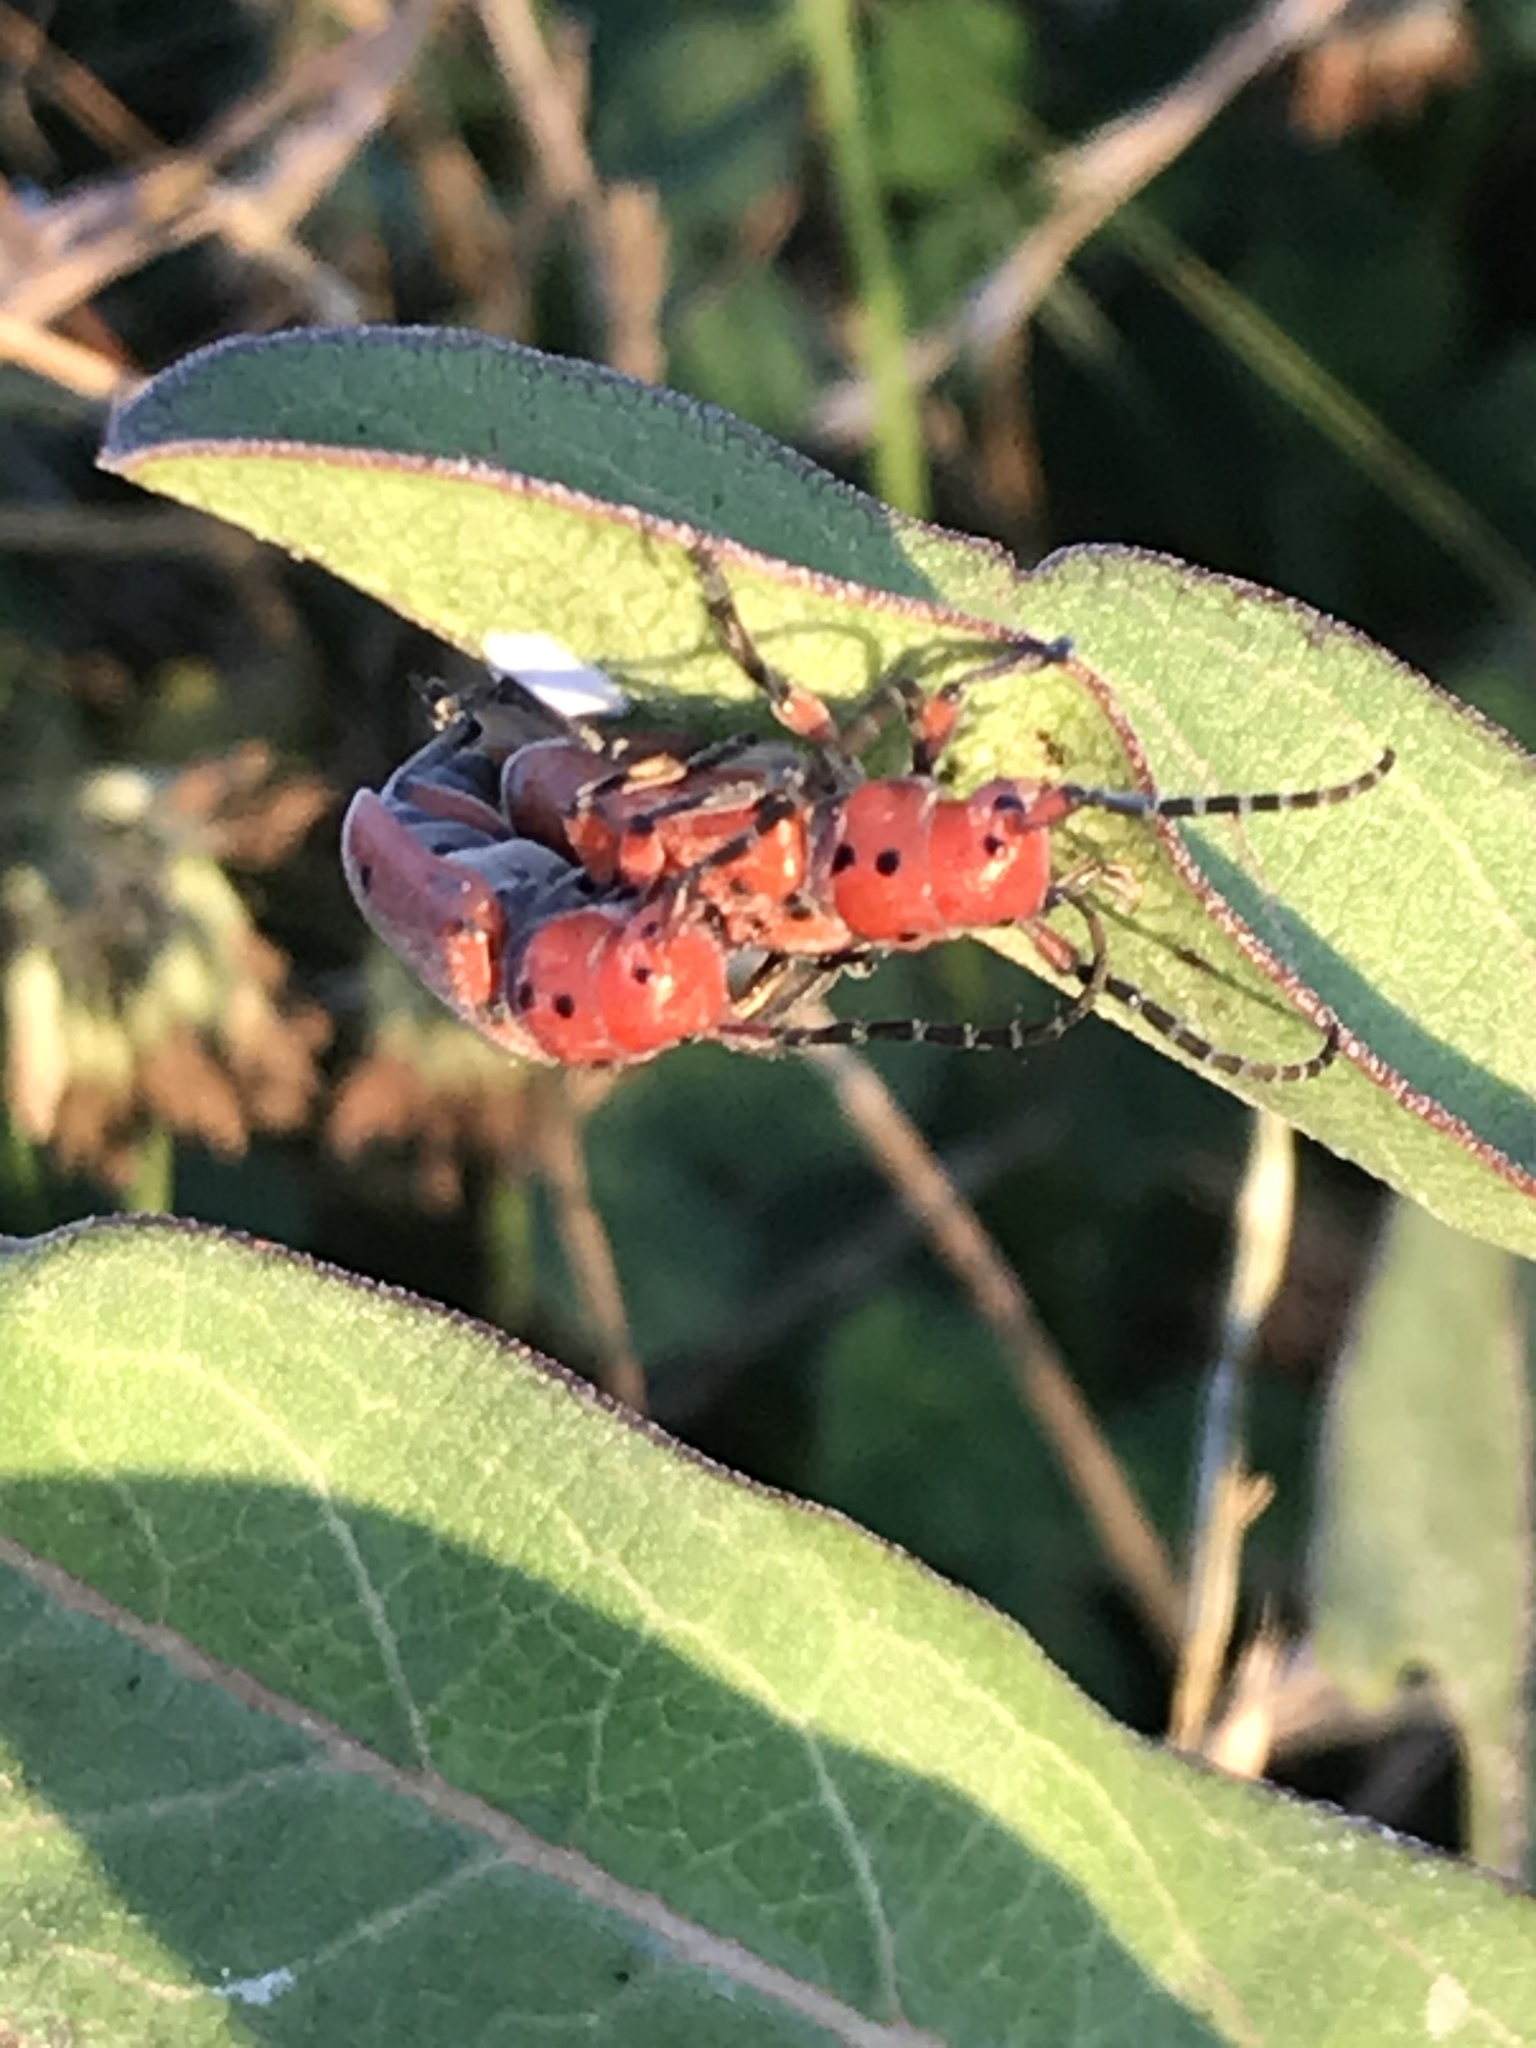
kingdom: Animalia
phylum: Arthropoda
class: Insecta
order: Coleoptera
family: Cerambycidae
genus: Tetraopes
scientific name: Tetraopes texanus
